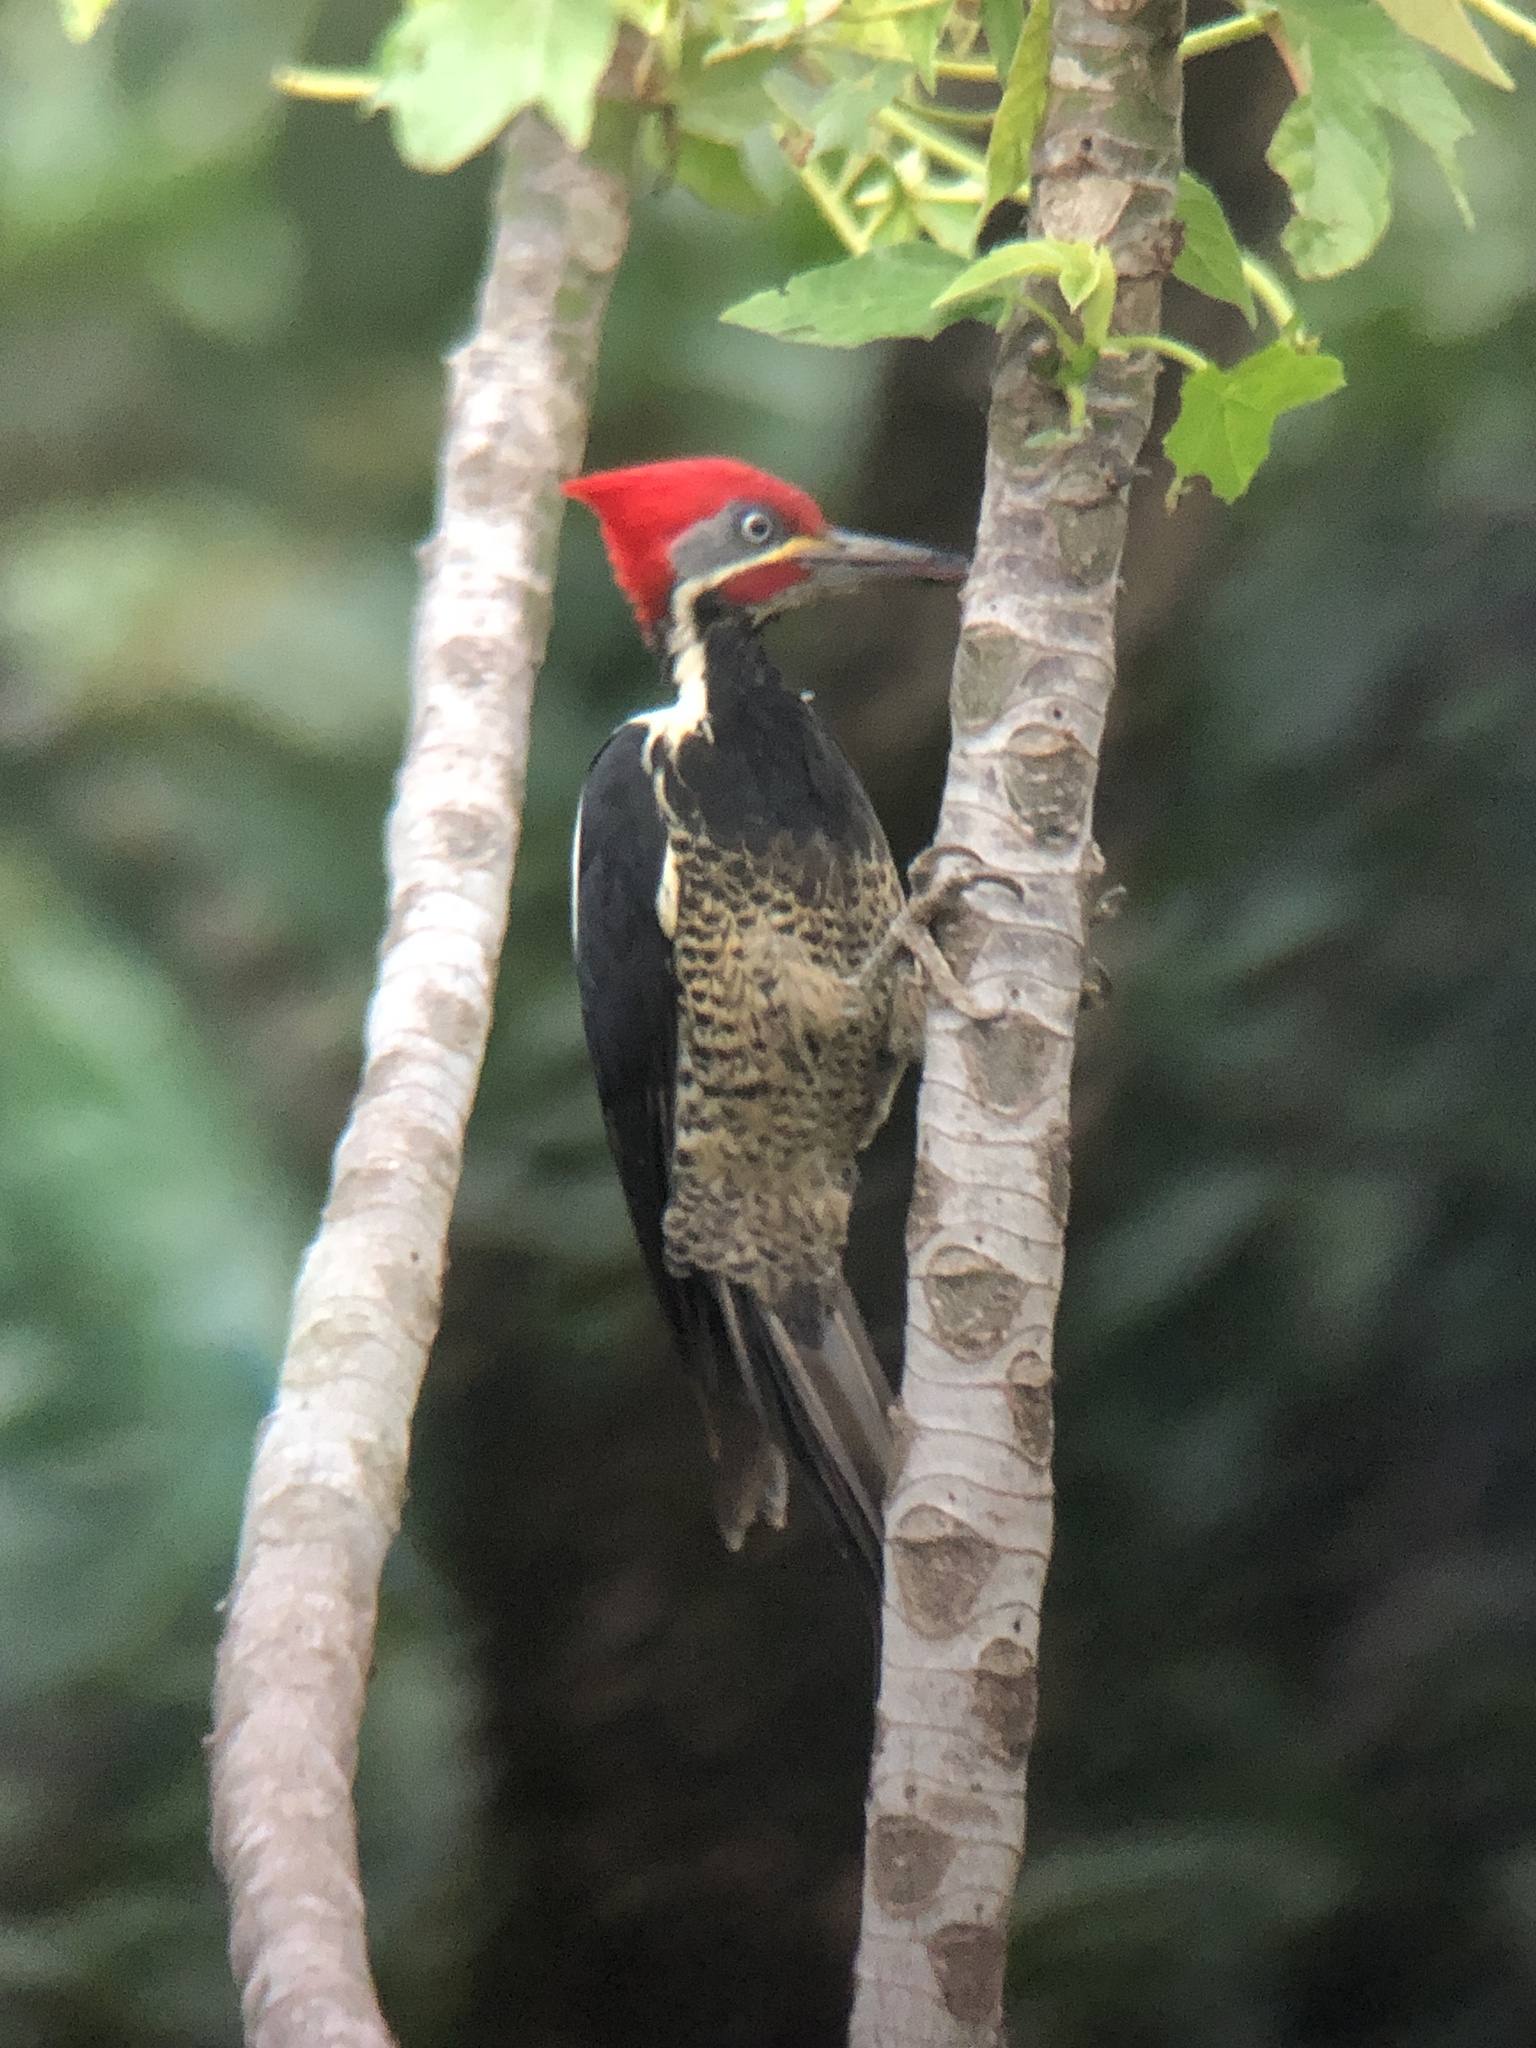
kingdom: Animalia
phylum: Chordata
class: Aves
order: Piciformes
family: Picidae
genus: Dryocopus
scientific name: Dryocopus lineatus
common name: Lineated woodpecker
